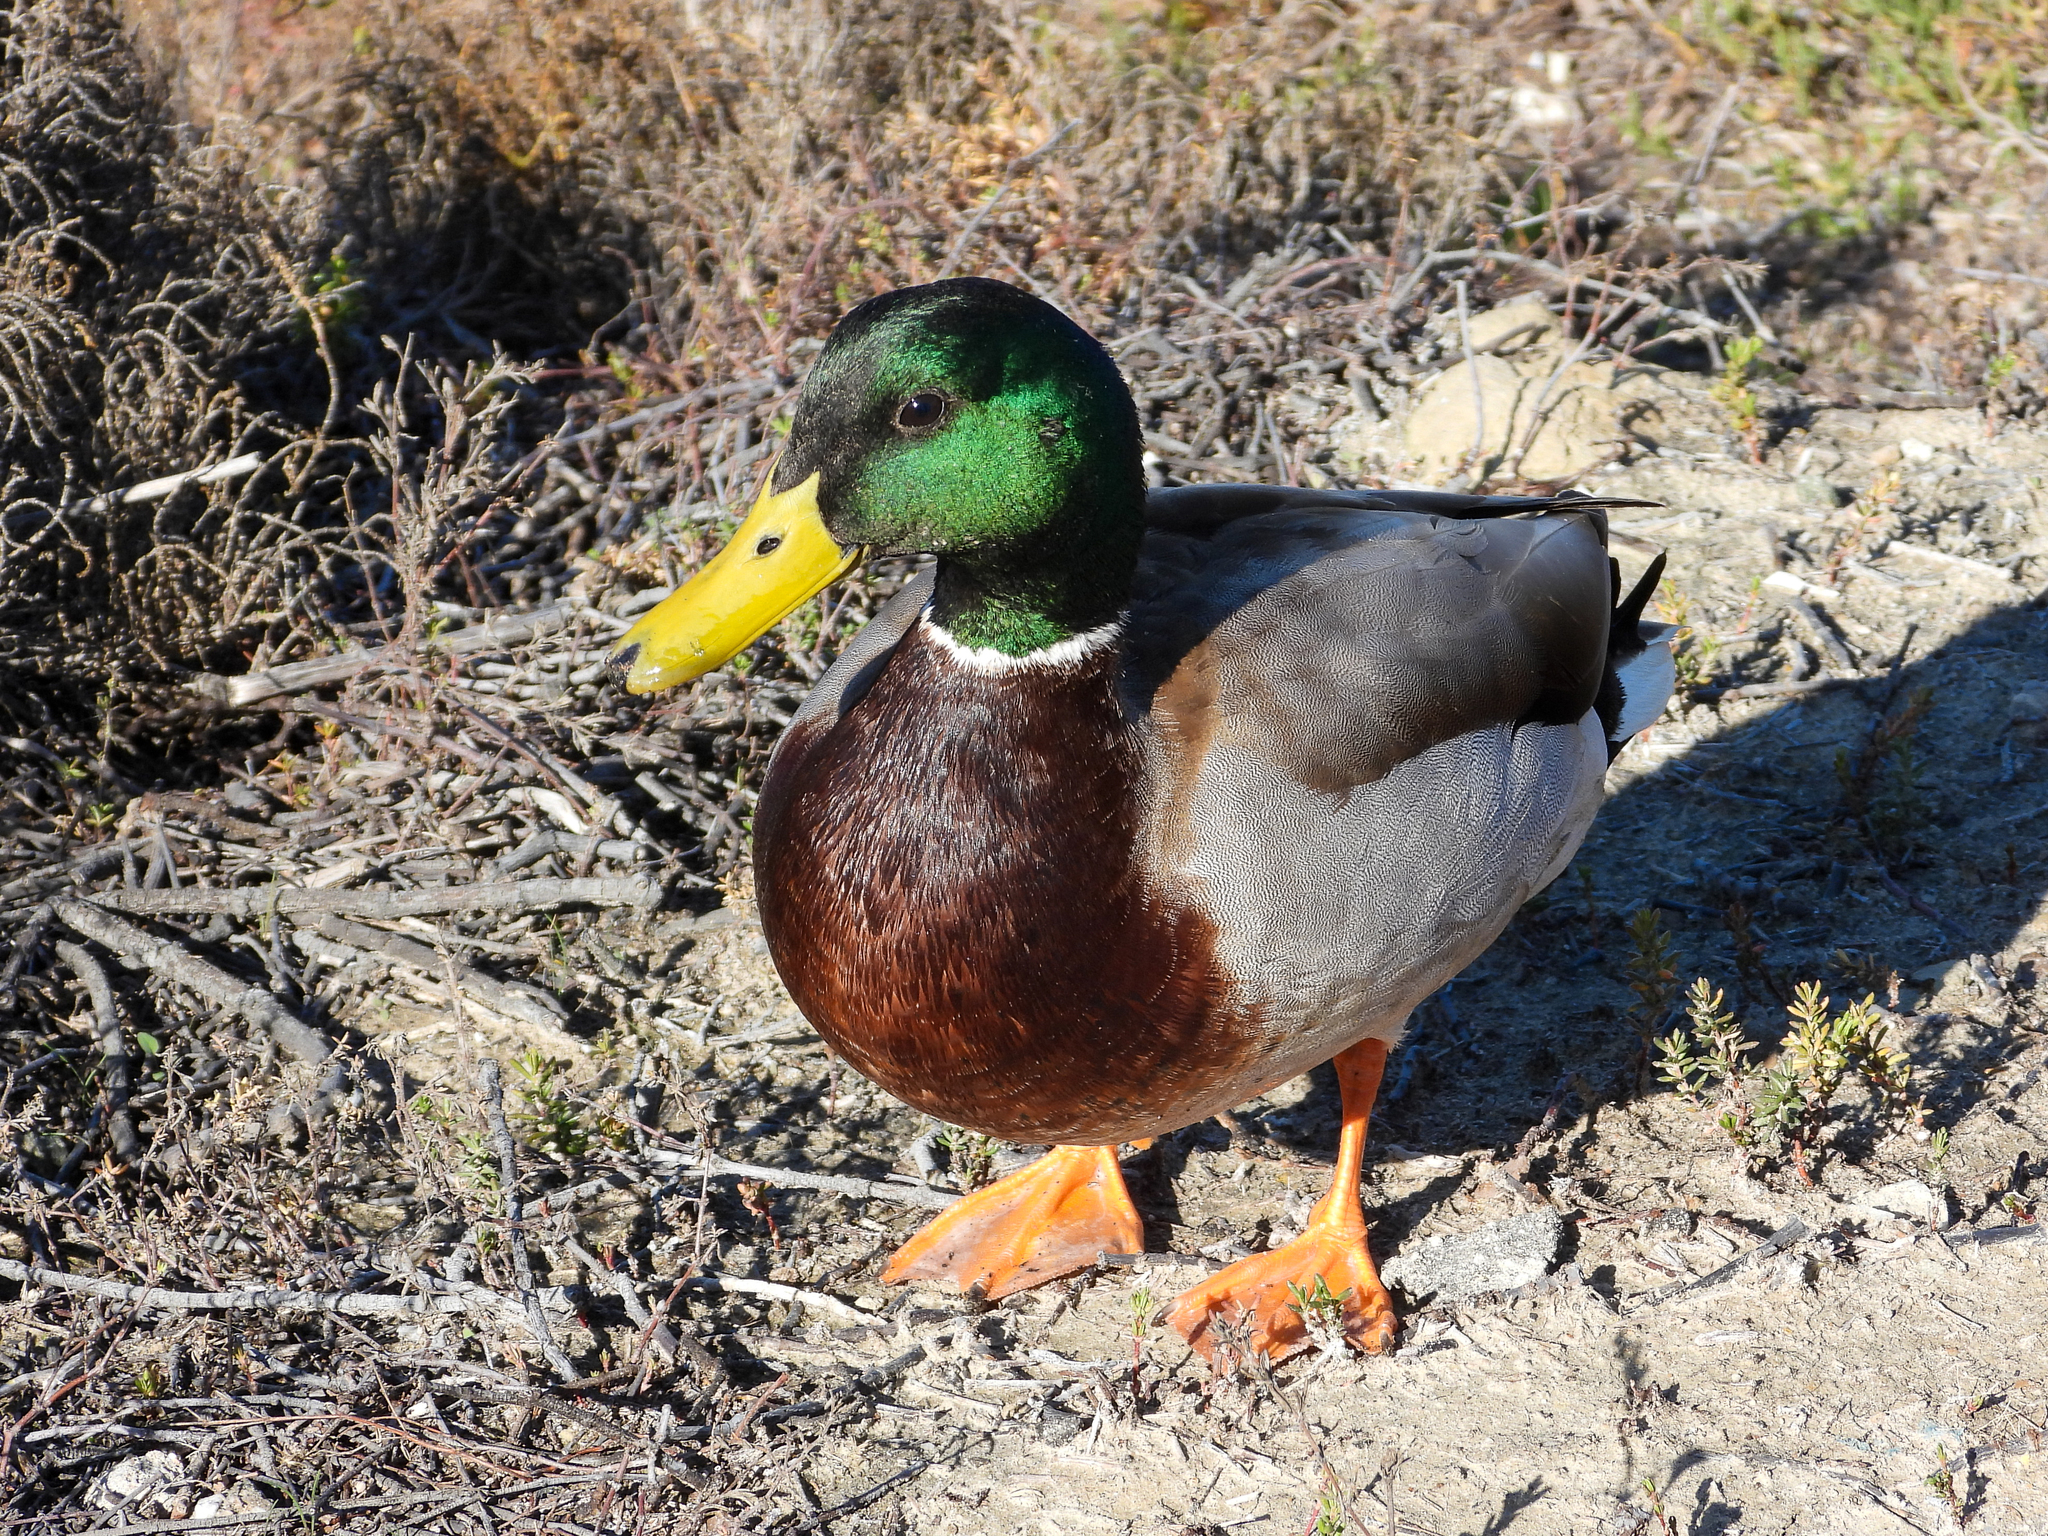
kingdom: Animalia
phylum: Chordata
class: Aves
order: Anseriformes
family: Anatidae
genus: Anas
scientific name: Anas platyrhynchos
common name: Mallard
